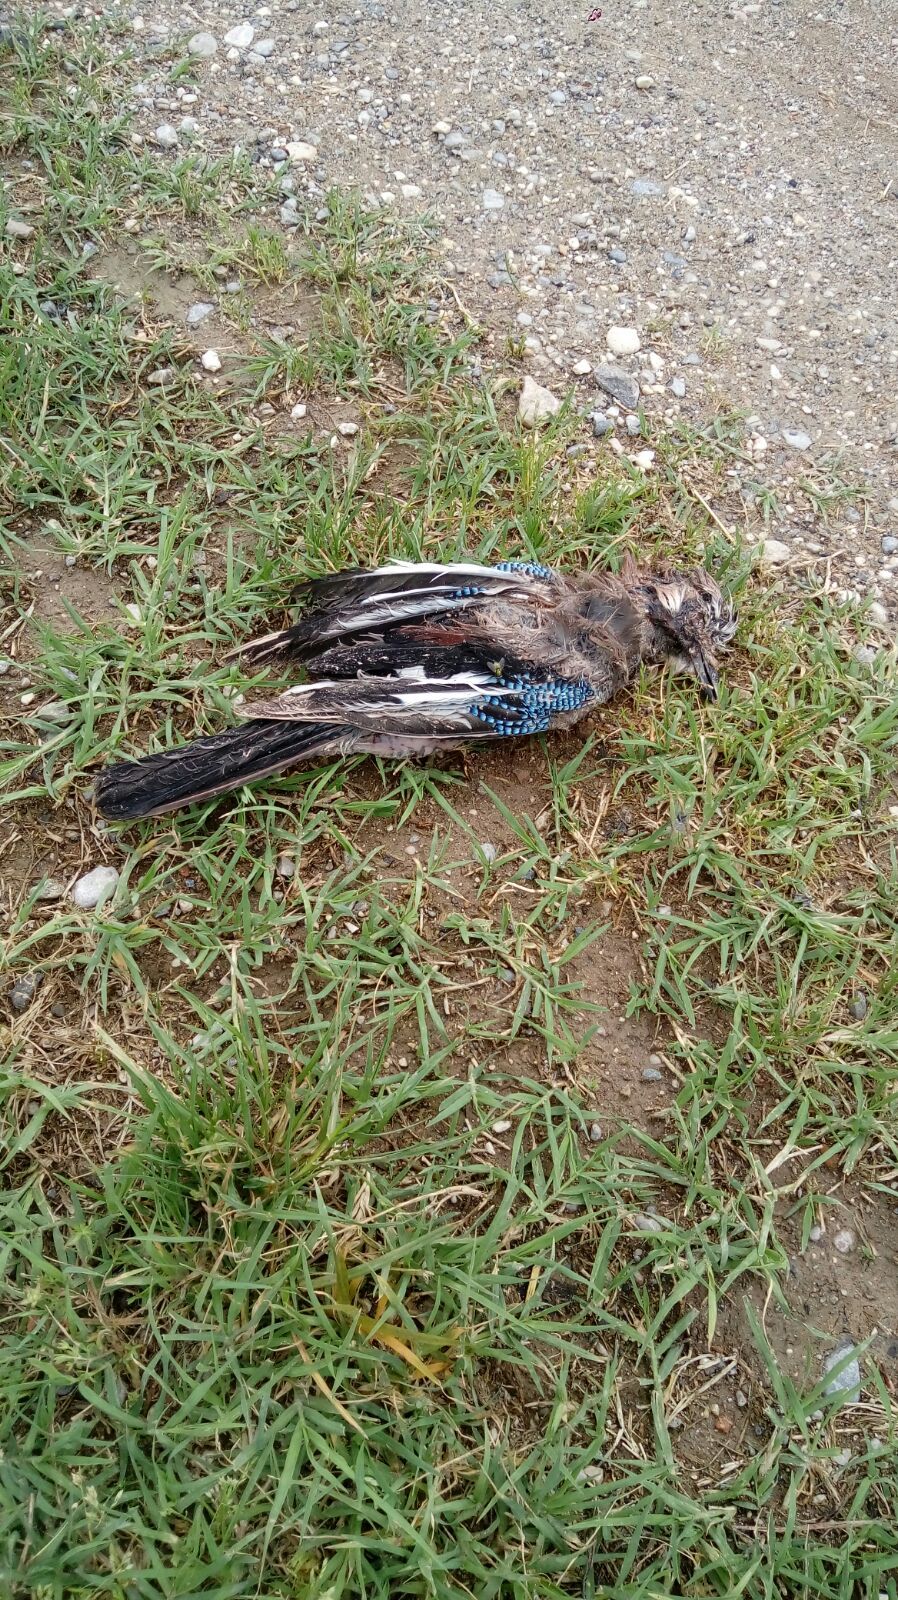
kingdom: Animalia
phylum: Chordata
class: Aves
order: Passeriformes
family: Corvidae
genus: Garrulus
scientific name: Garrulus glandarius
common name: Eurasian jay
